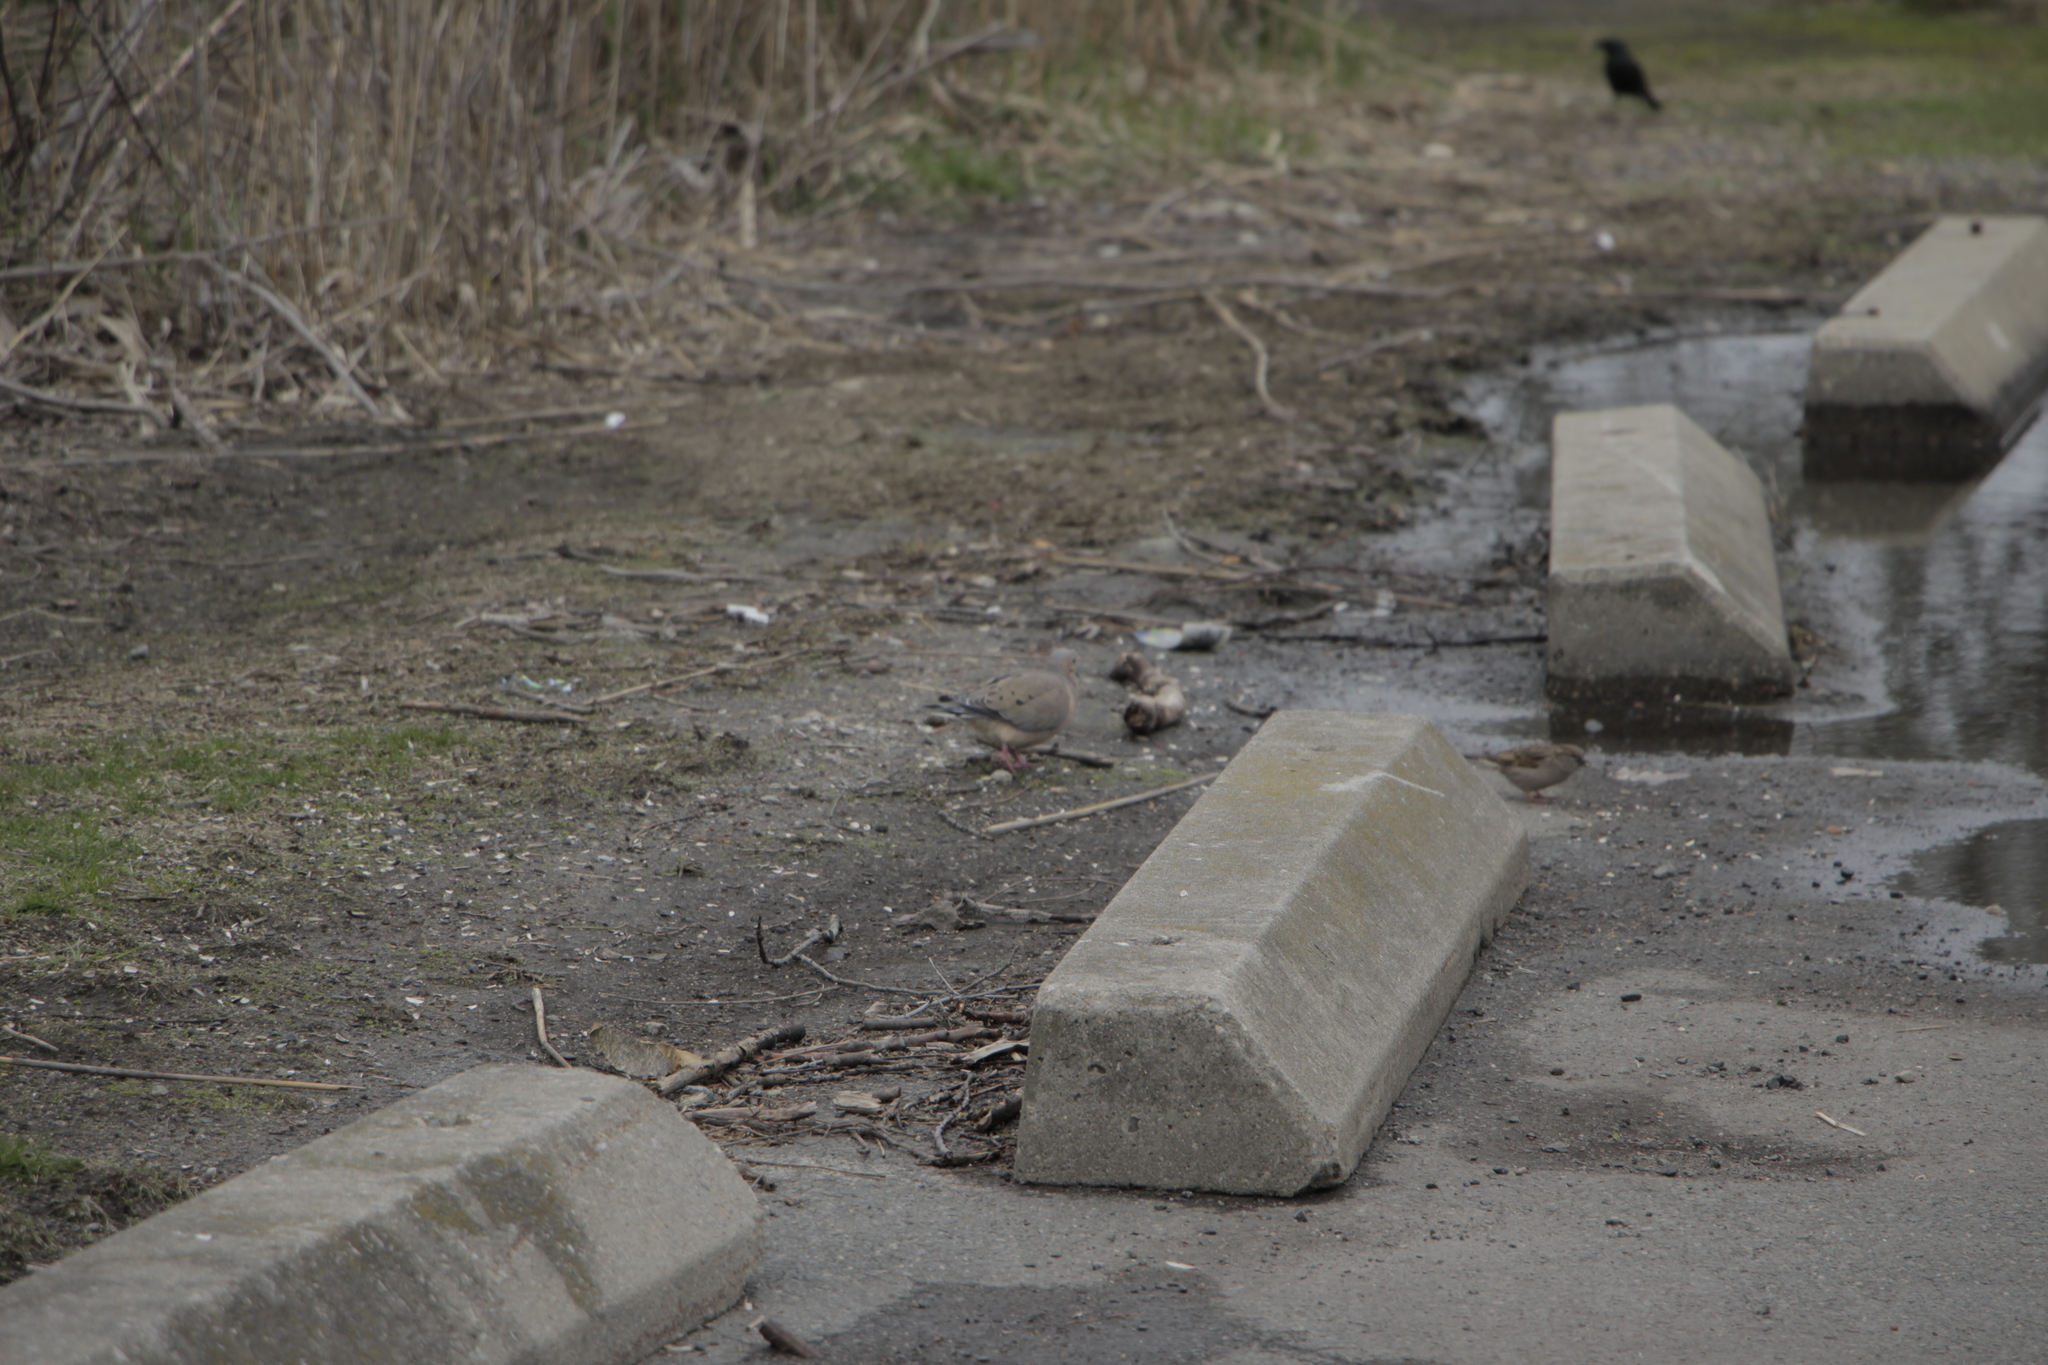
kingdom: Animalia
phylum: Chordata
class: Aves
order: Columbiformes
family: Columbidae
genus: Zenaida
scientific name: Zenaida macroura
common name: Mourning dove
